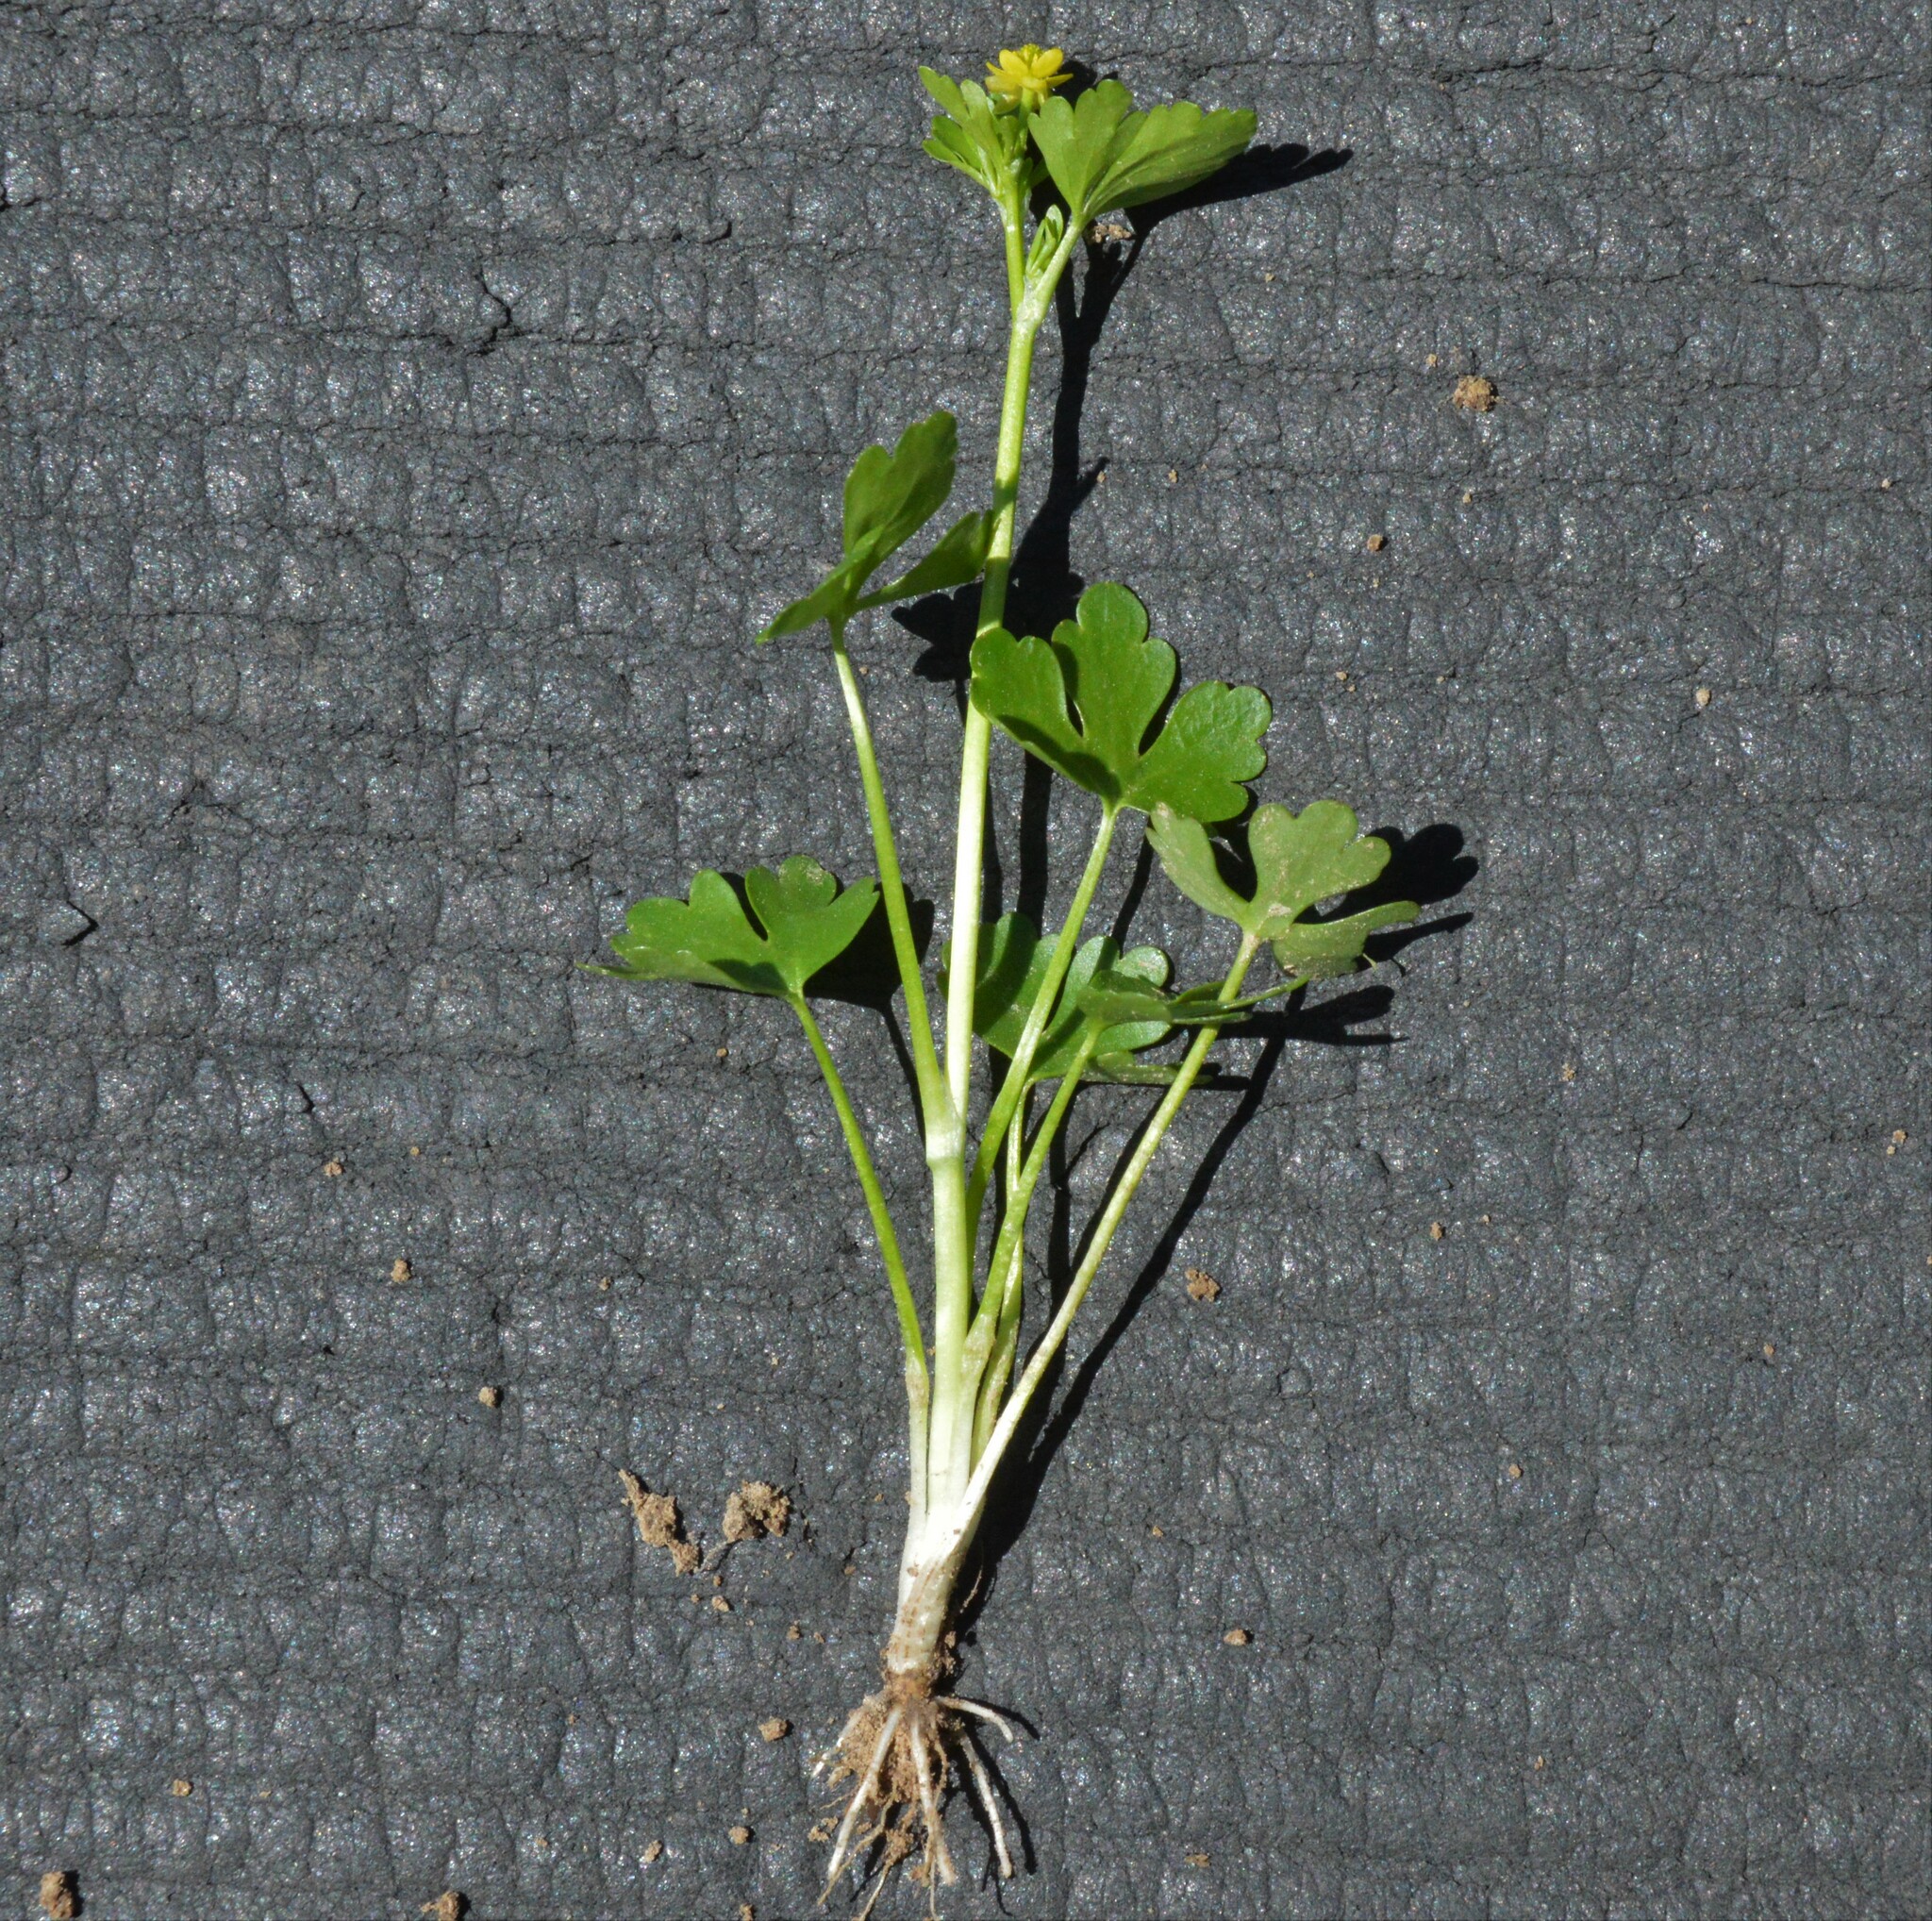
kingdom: Plantae
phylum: Tracheophyta
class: Magnoliopsida
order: Ranunculales
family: Ranunculaceae
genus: Ranunculus
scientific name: Ranunculus sceleratus
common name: Celery-leaved buttercup
